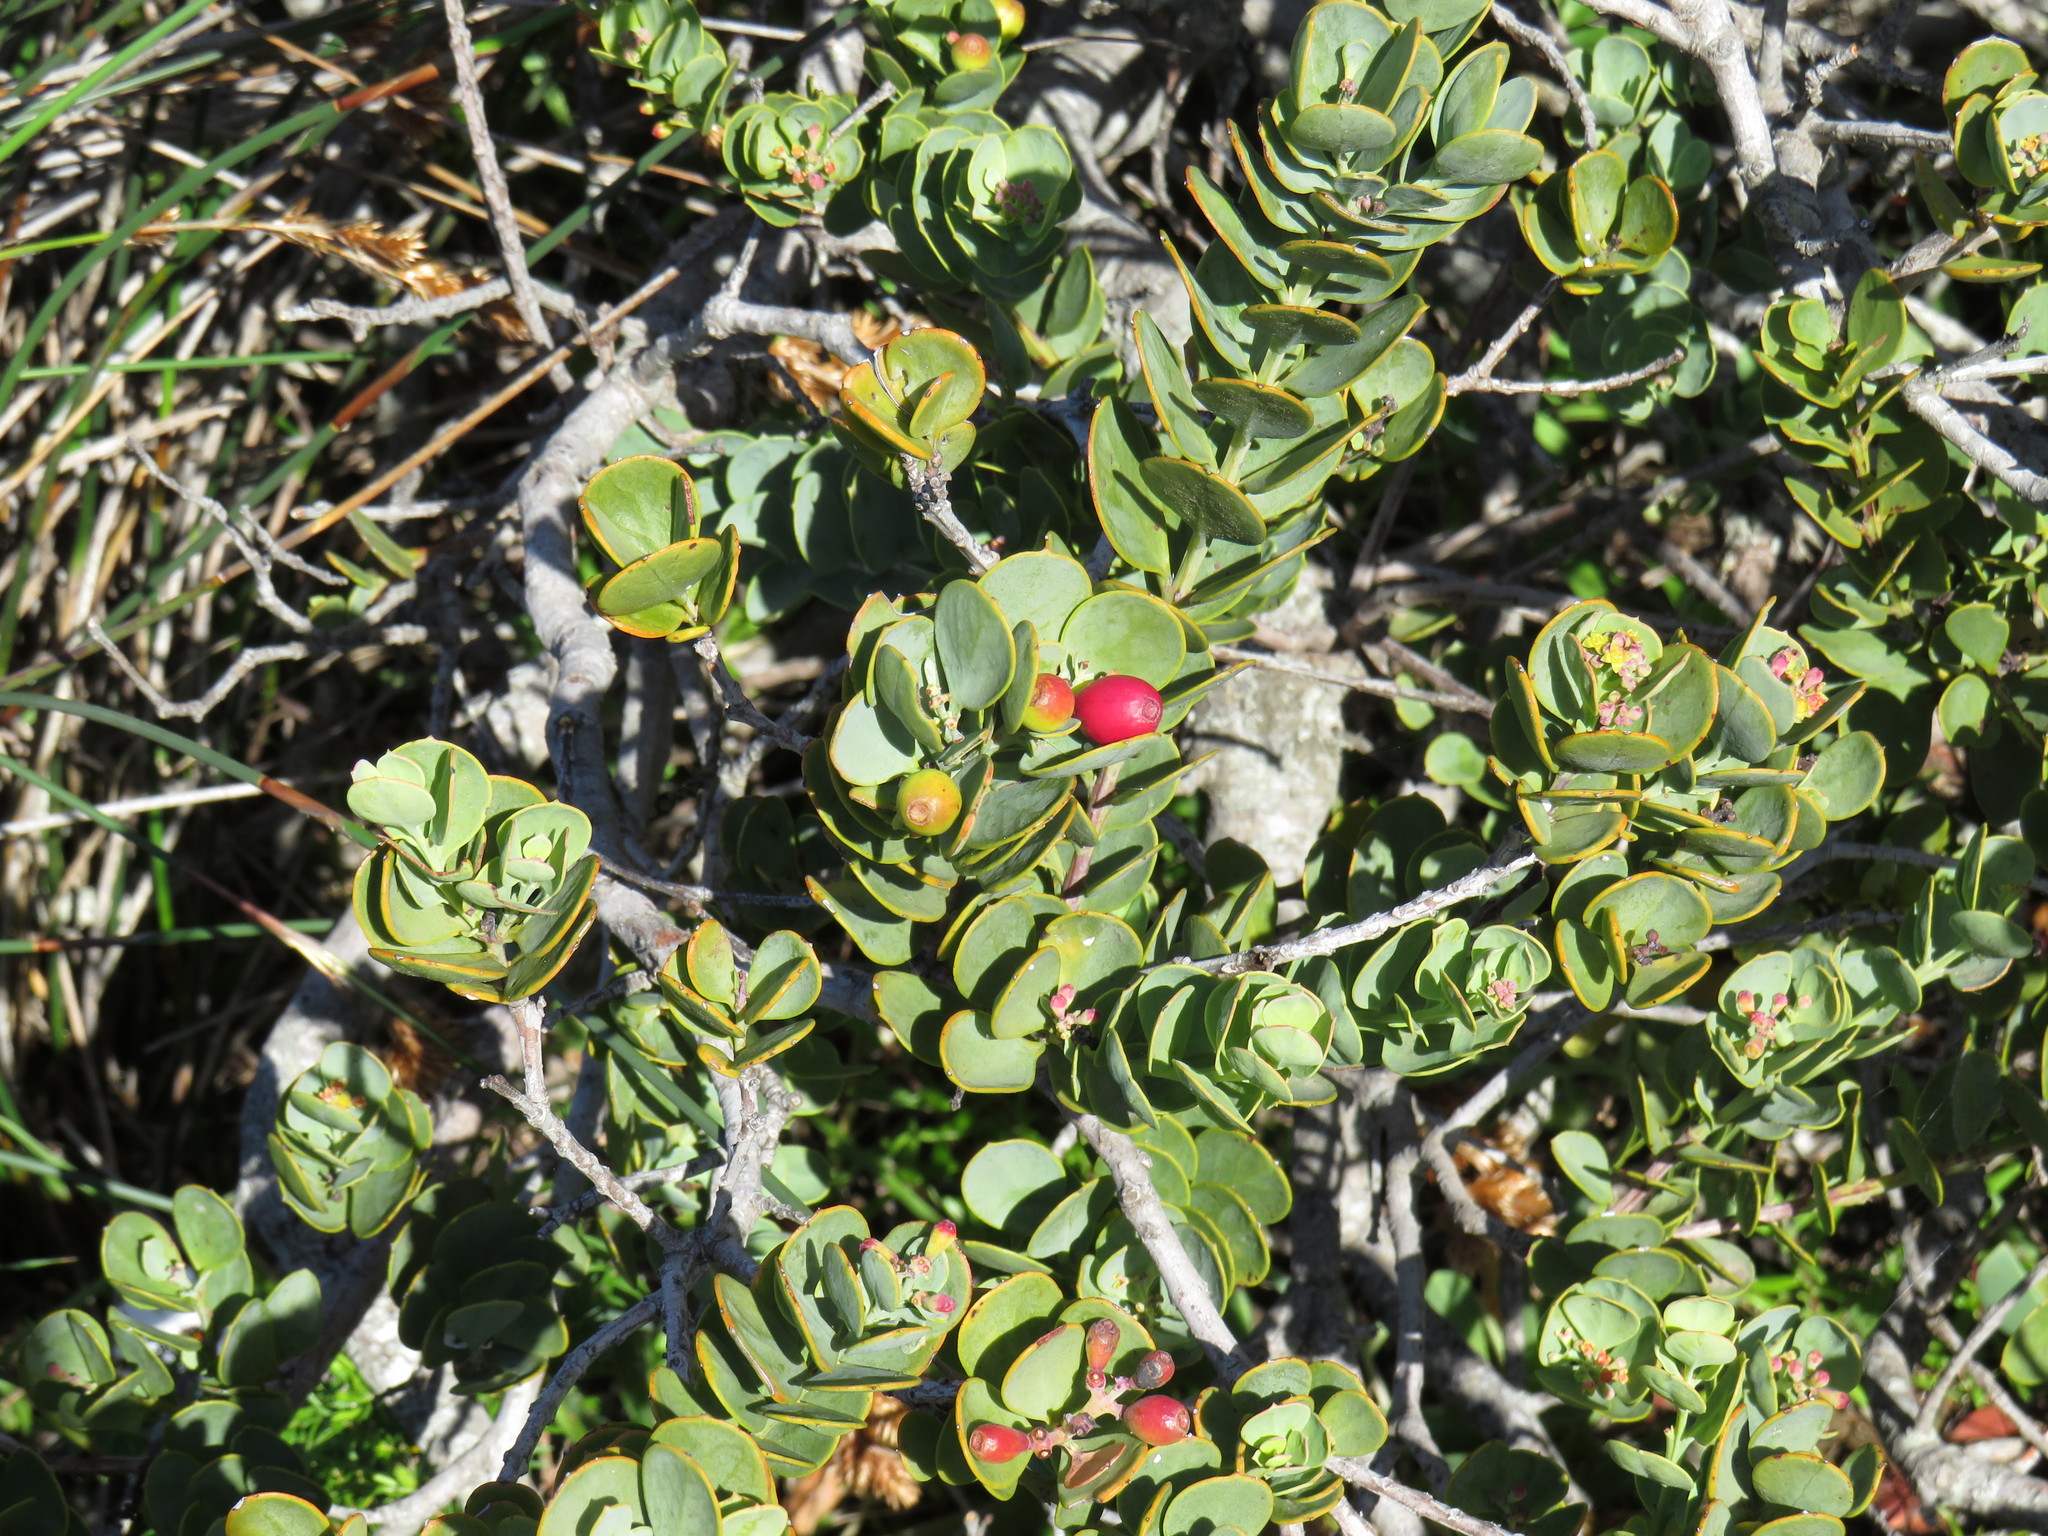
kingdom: Plantae
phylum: Tracheophyta
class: Magnoliopsida
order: Santalales
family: Santalaceae
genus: Osyris
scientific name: Osyris compressa
